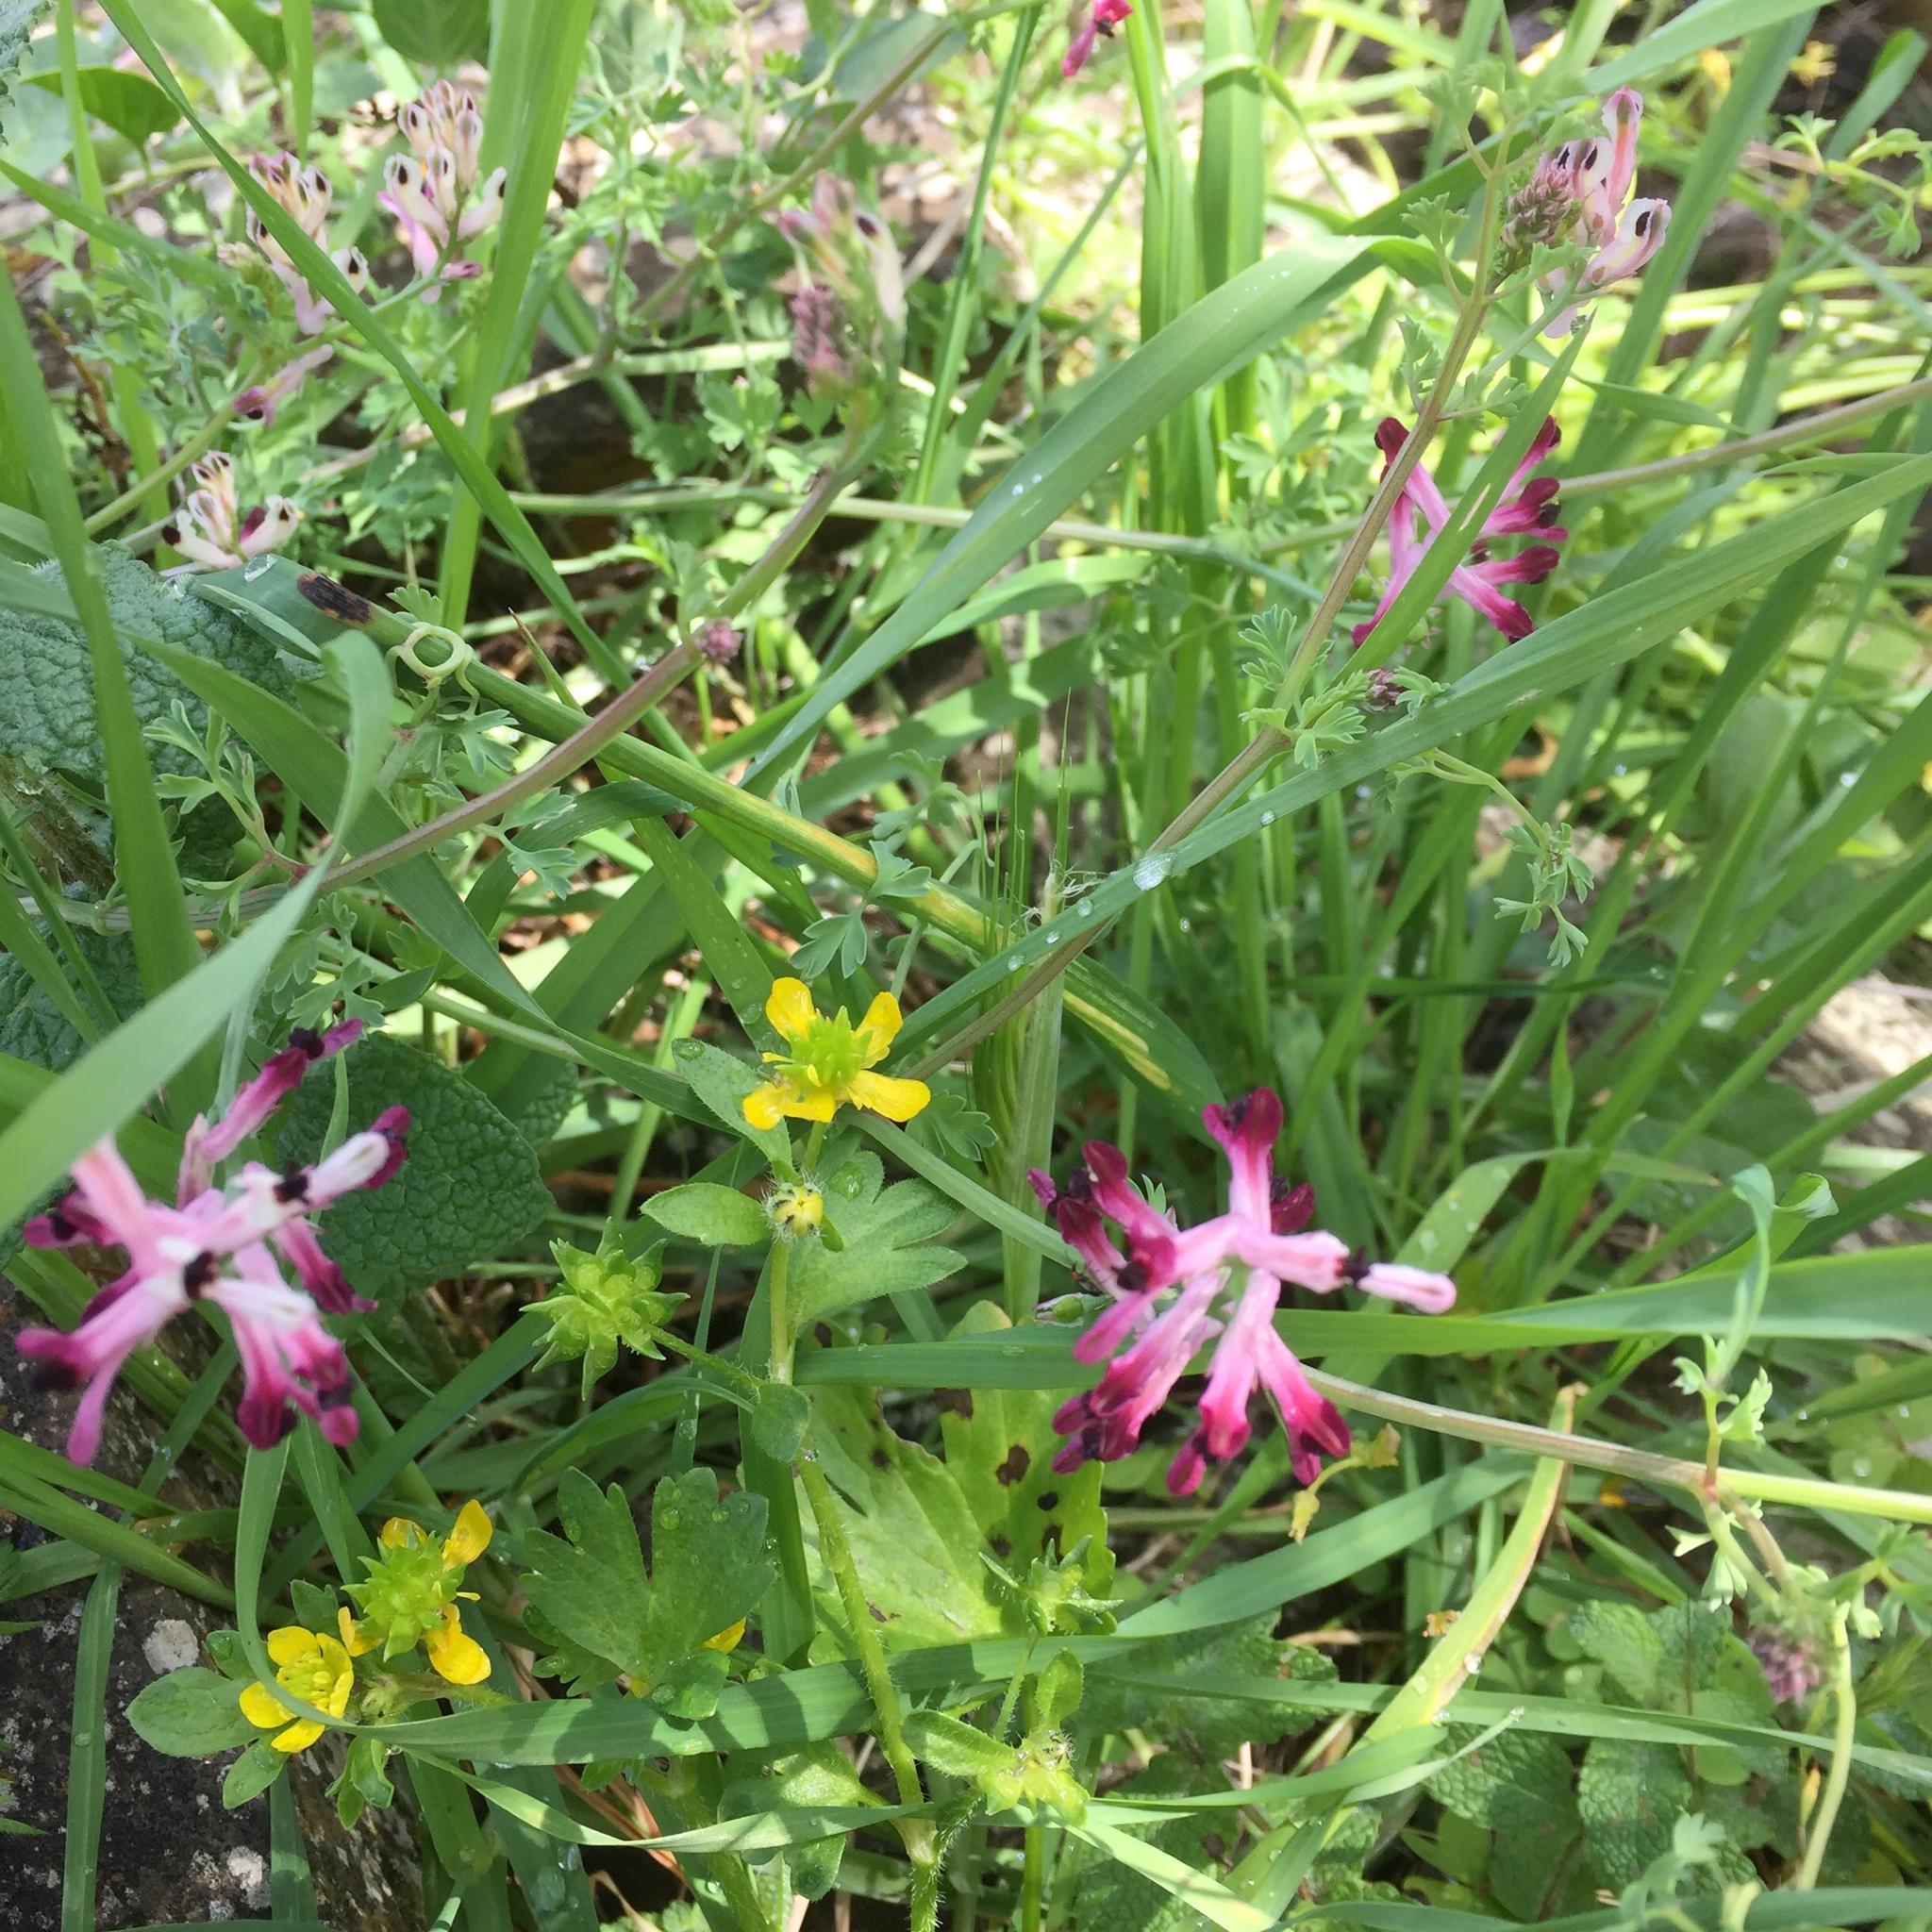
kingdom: Plantae
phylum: Tracheophyta
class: Magnoliopsida
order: Ranunculales
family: Ranunculaceae
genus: Ranunculus
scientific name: Ranunculus muricatus
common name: Rough-fruited buttercup
